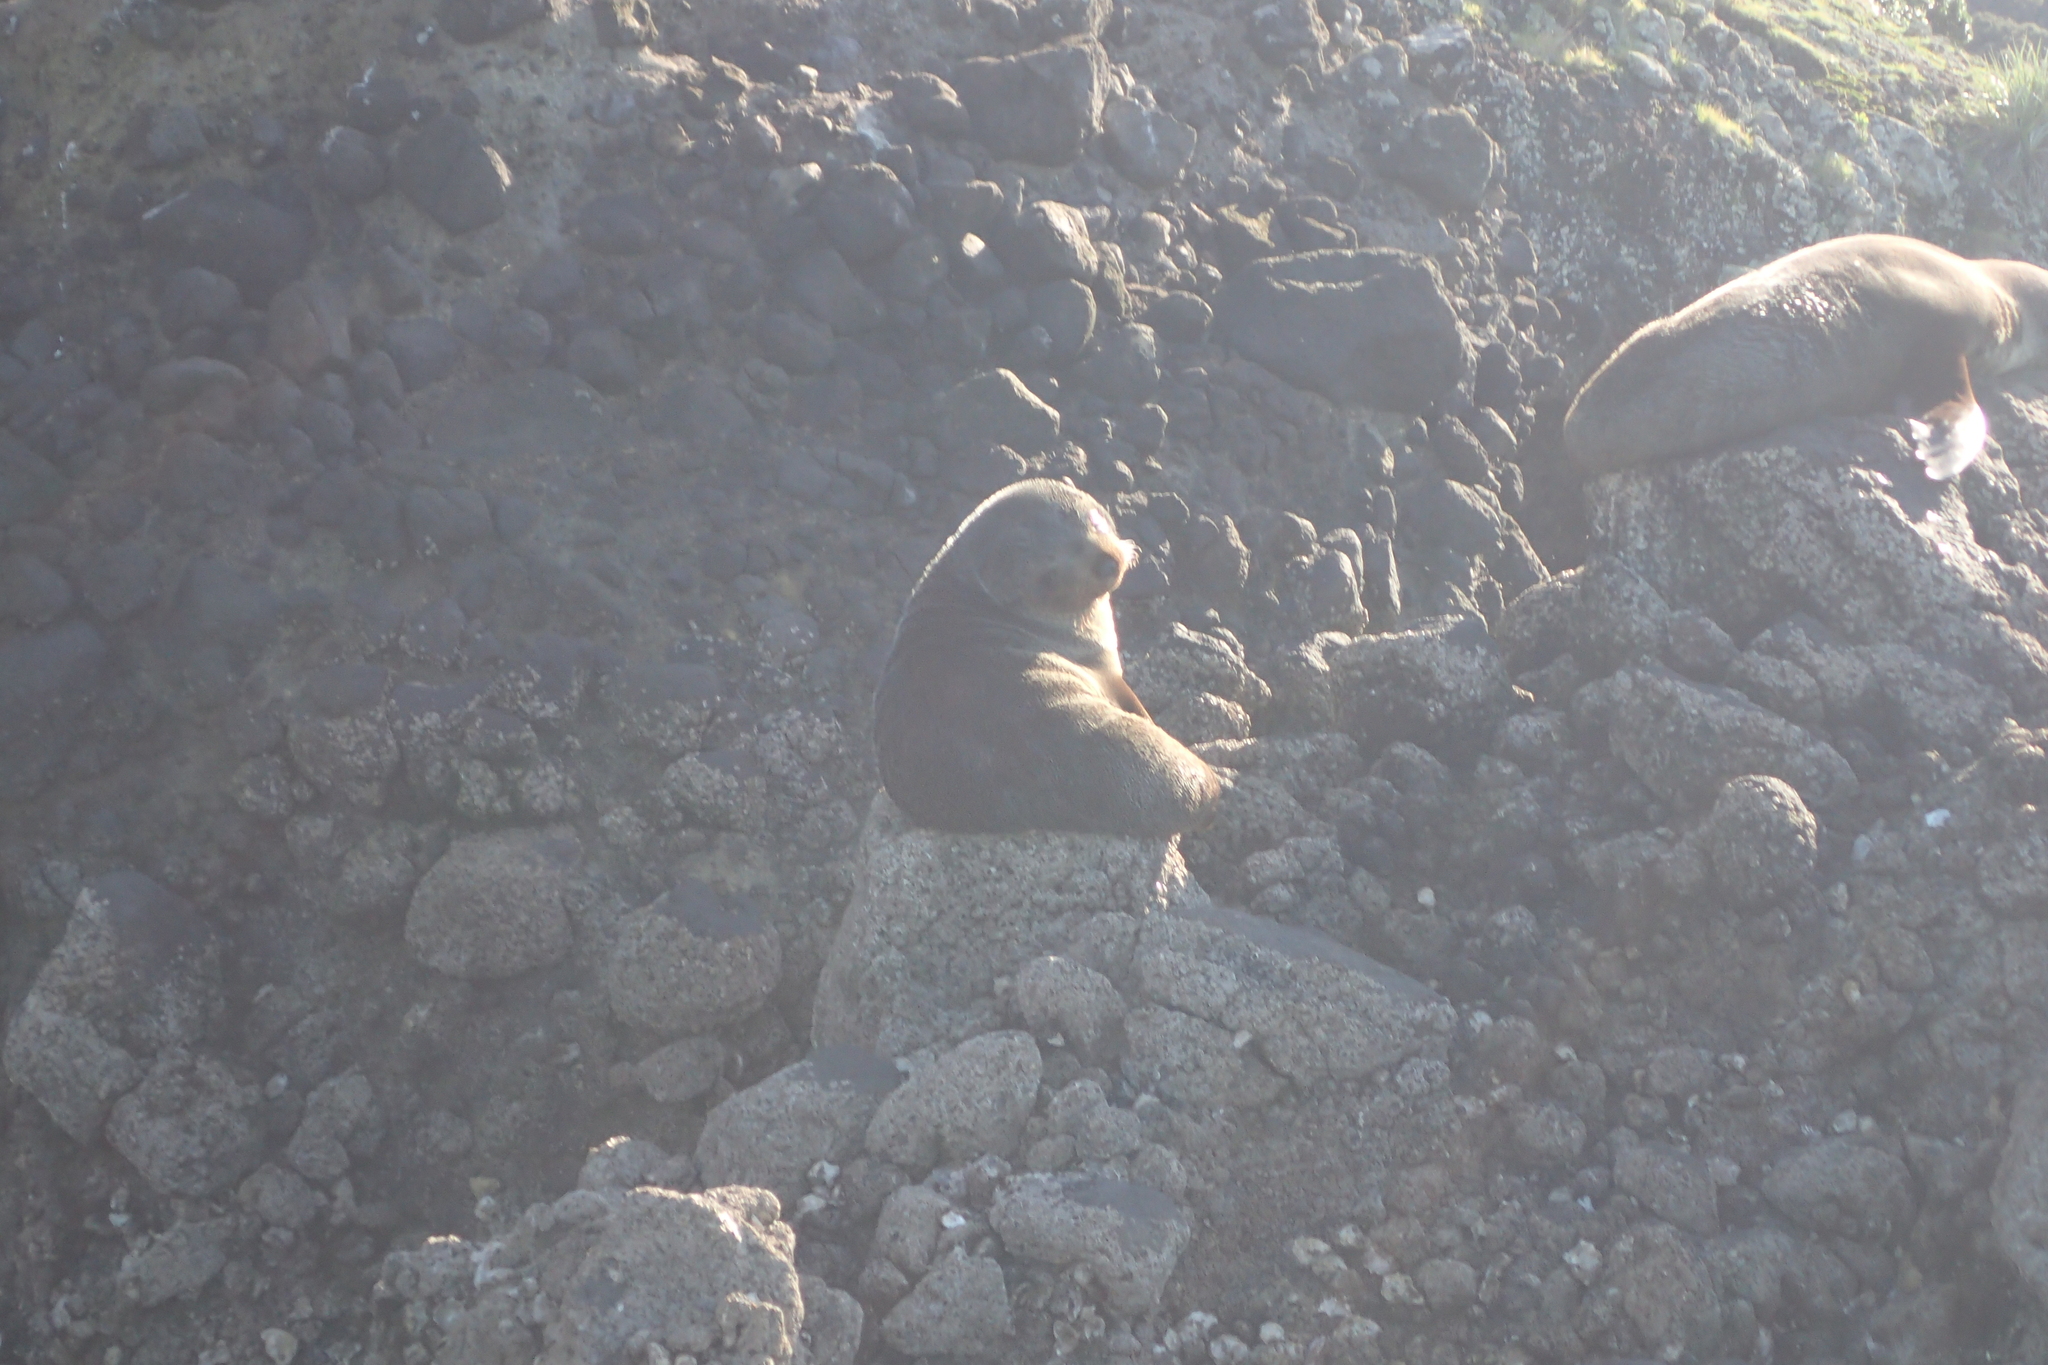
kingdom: Animalia
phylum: Chordata
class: Mammalia
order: Carnivora
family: Otariidae
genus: Arctocephalus
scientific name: Arctocephalus forsteri
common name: New zealand fur seal
